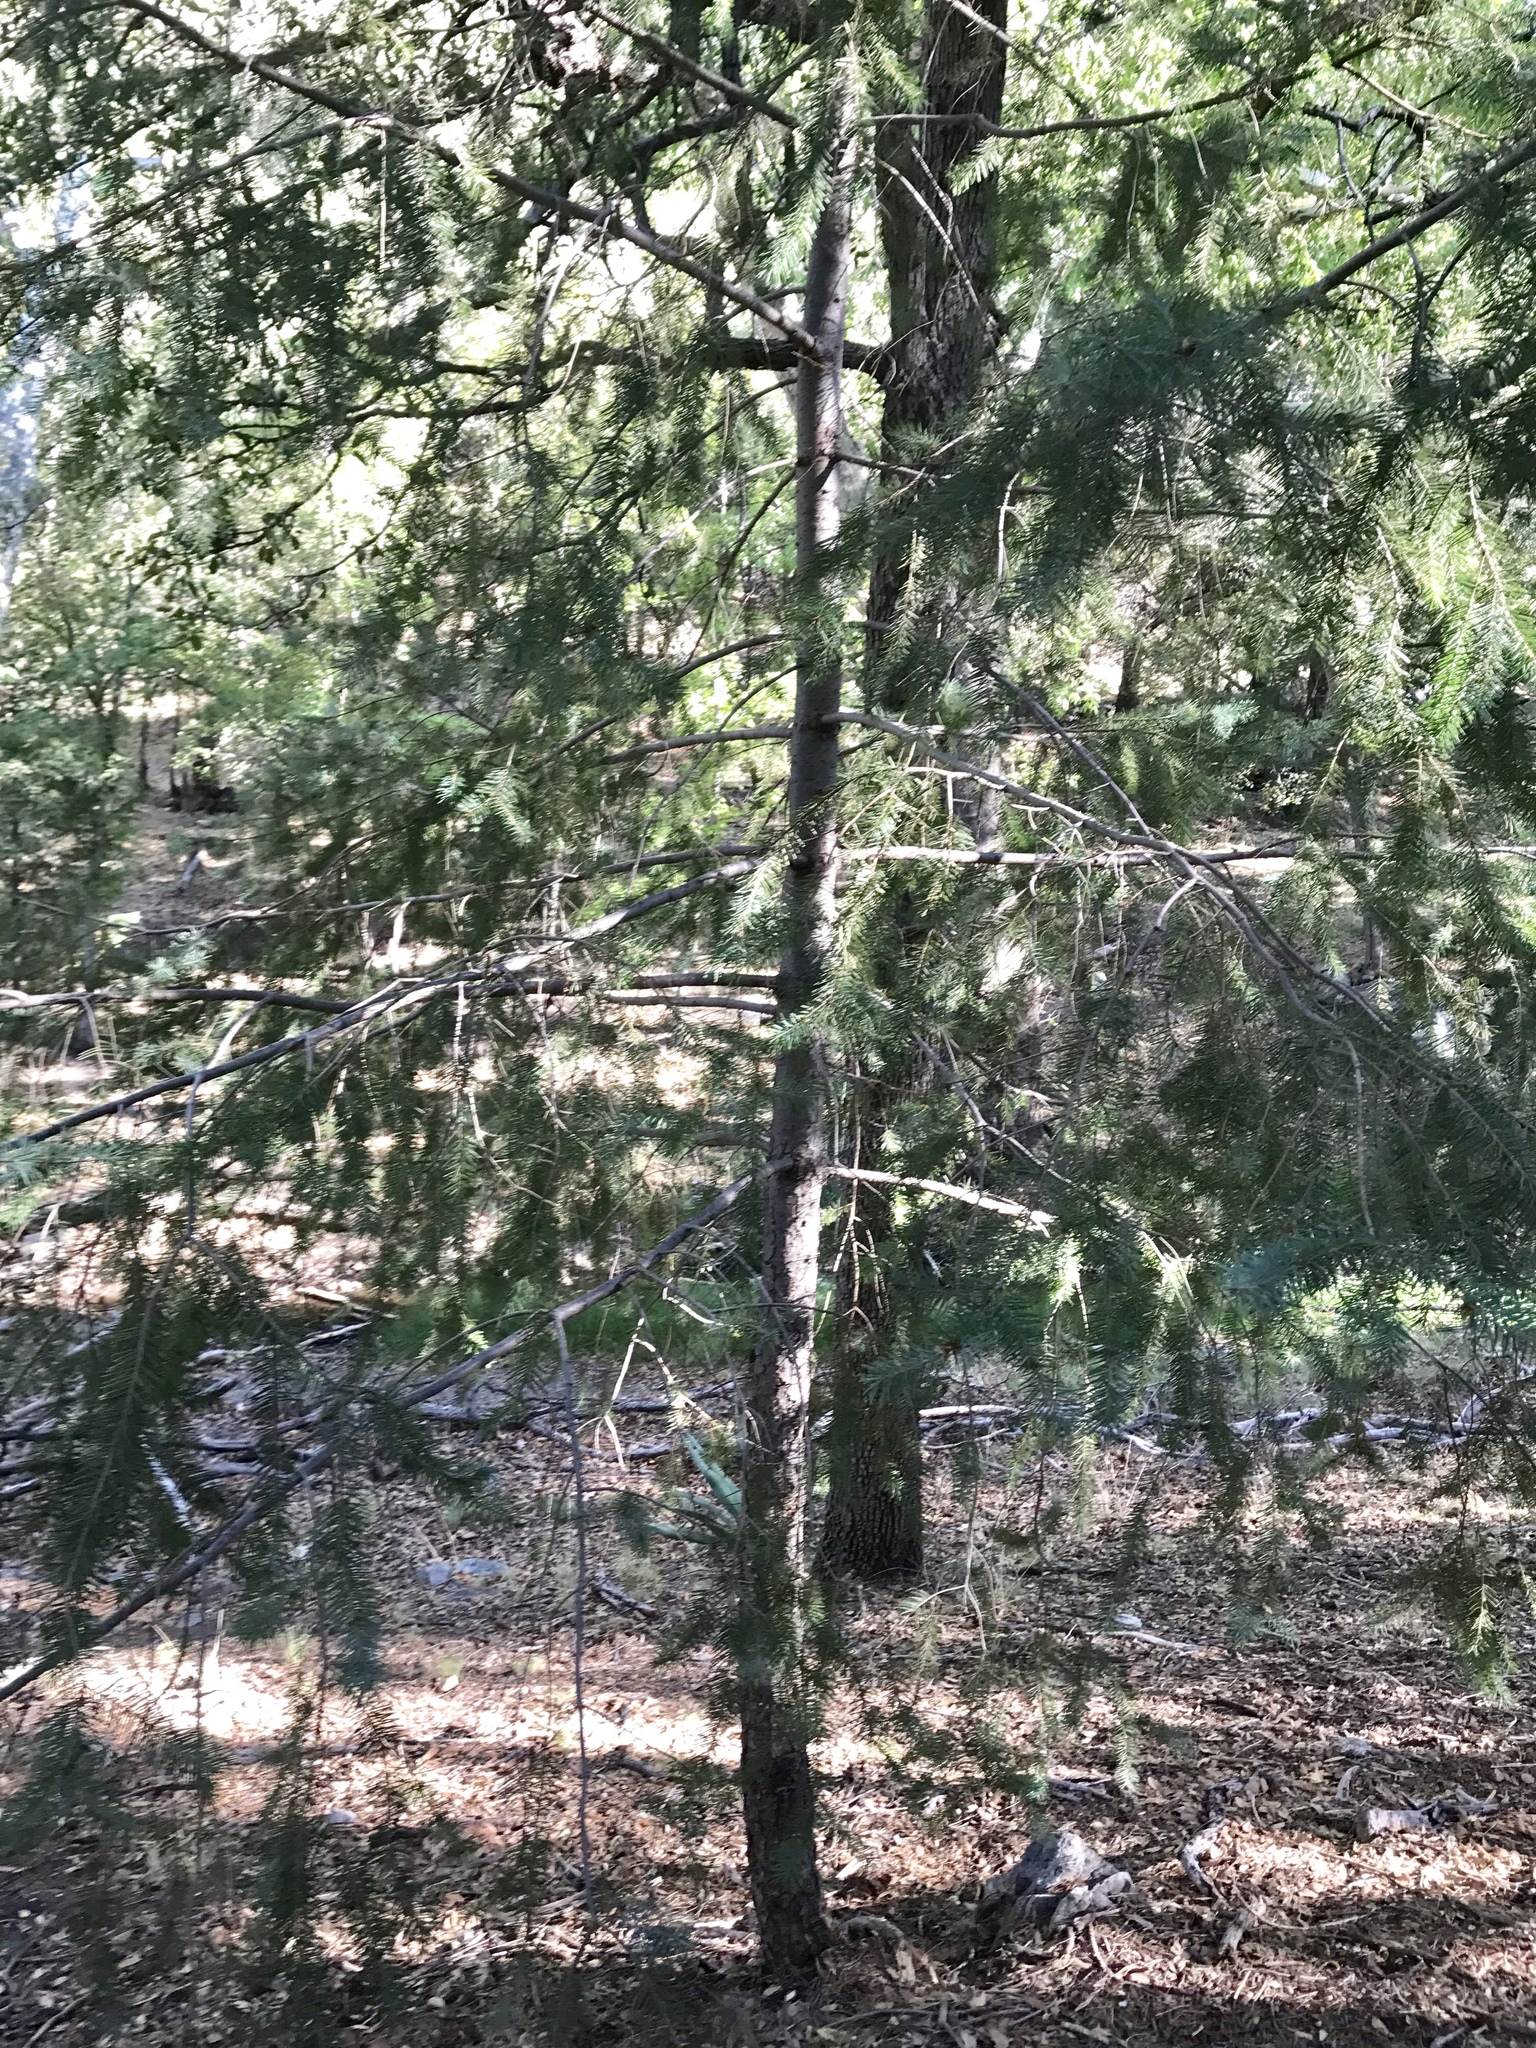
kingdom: Plantae
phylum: Tracheophyta
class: Pinopsida
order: Pinales
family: Pinaceae
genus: Pseudotsuga
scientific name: Pseudotsuga menziesii
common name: Douglas fir
